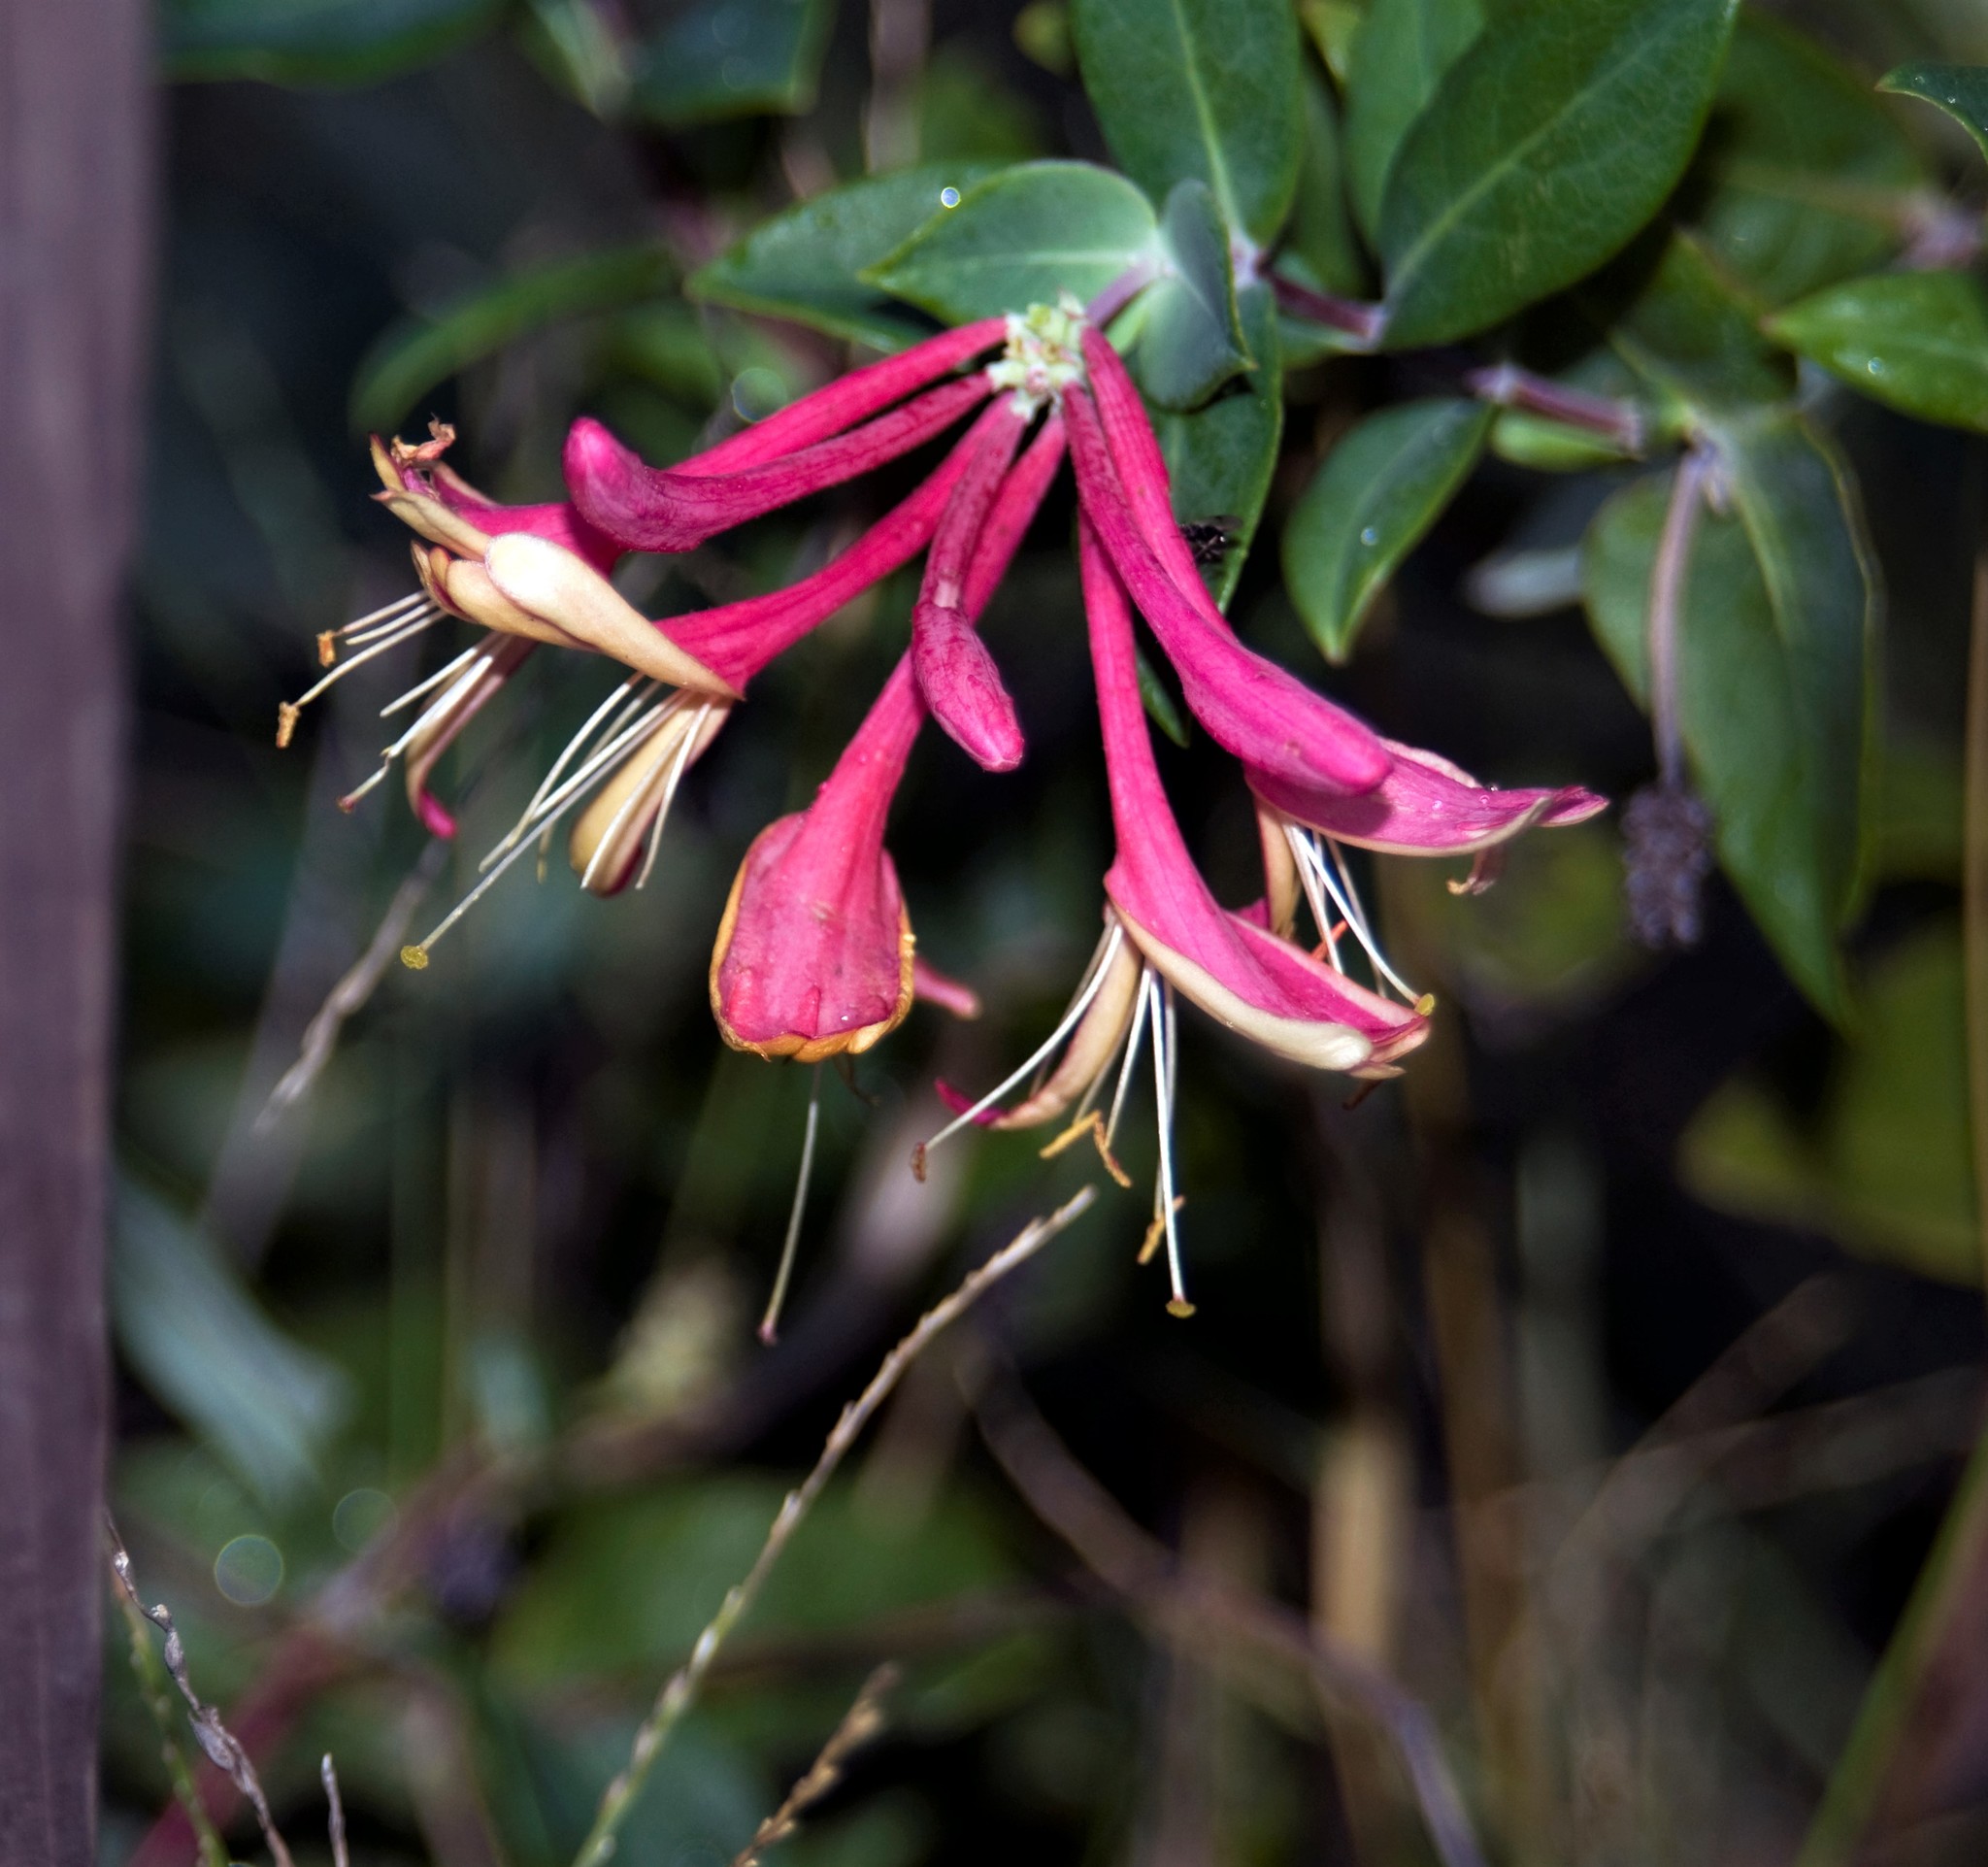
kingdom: Plantae
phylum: Tracheophyta
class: Magnoliopsida
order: Dipsacales
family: Caprifoliaceae
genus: Lonicera
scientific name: Lonicera periclymenum
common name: European honeysuckle
